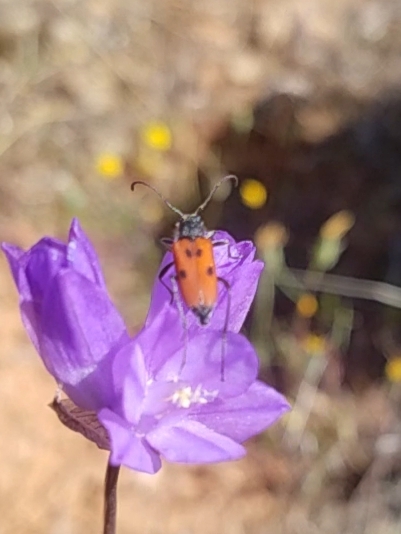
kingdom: Animalia
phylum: Arthropoda
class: Insecta
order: Coleoptera
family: Cerambycidae
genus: Anastrangalia
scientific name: Anastrangalia laetifica
